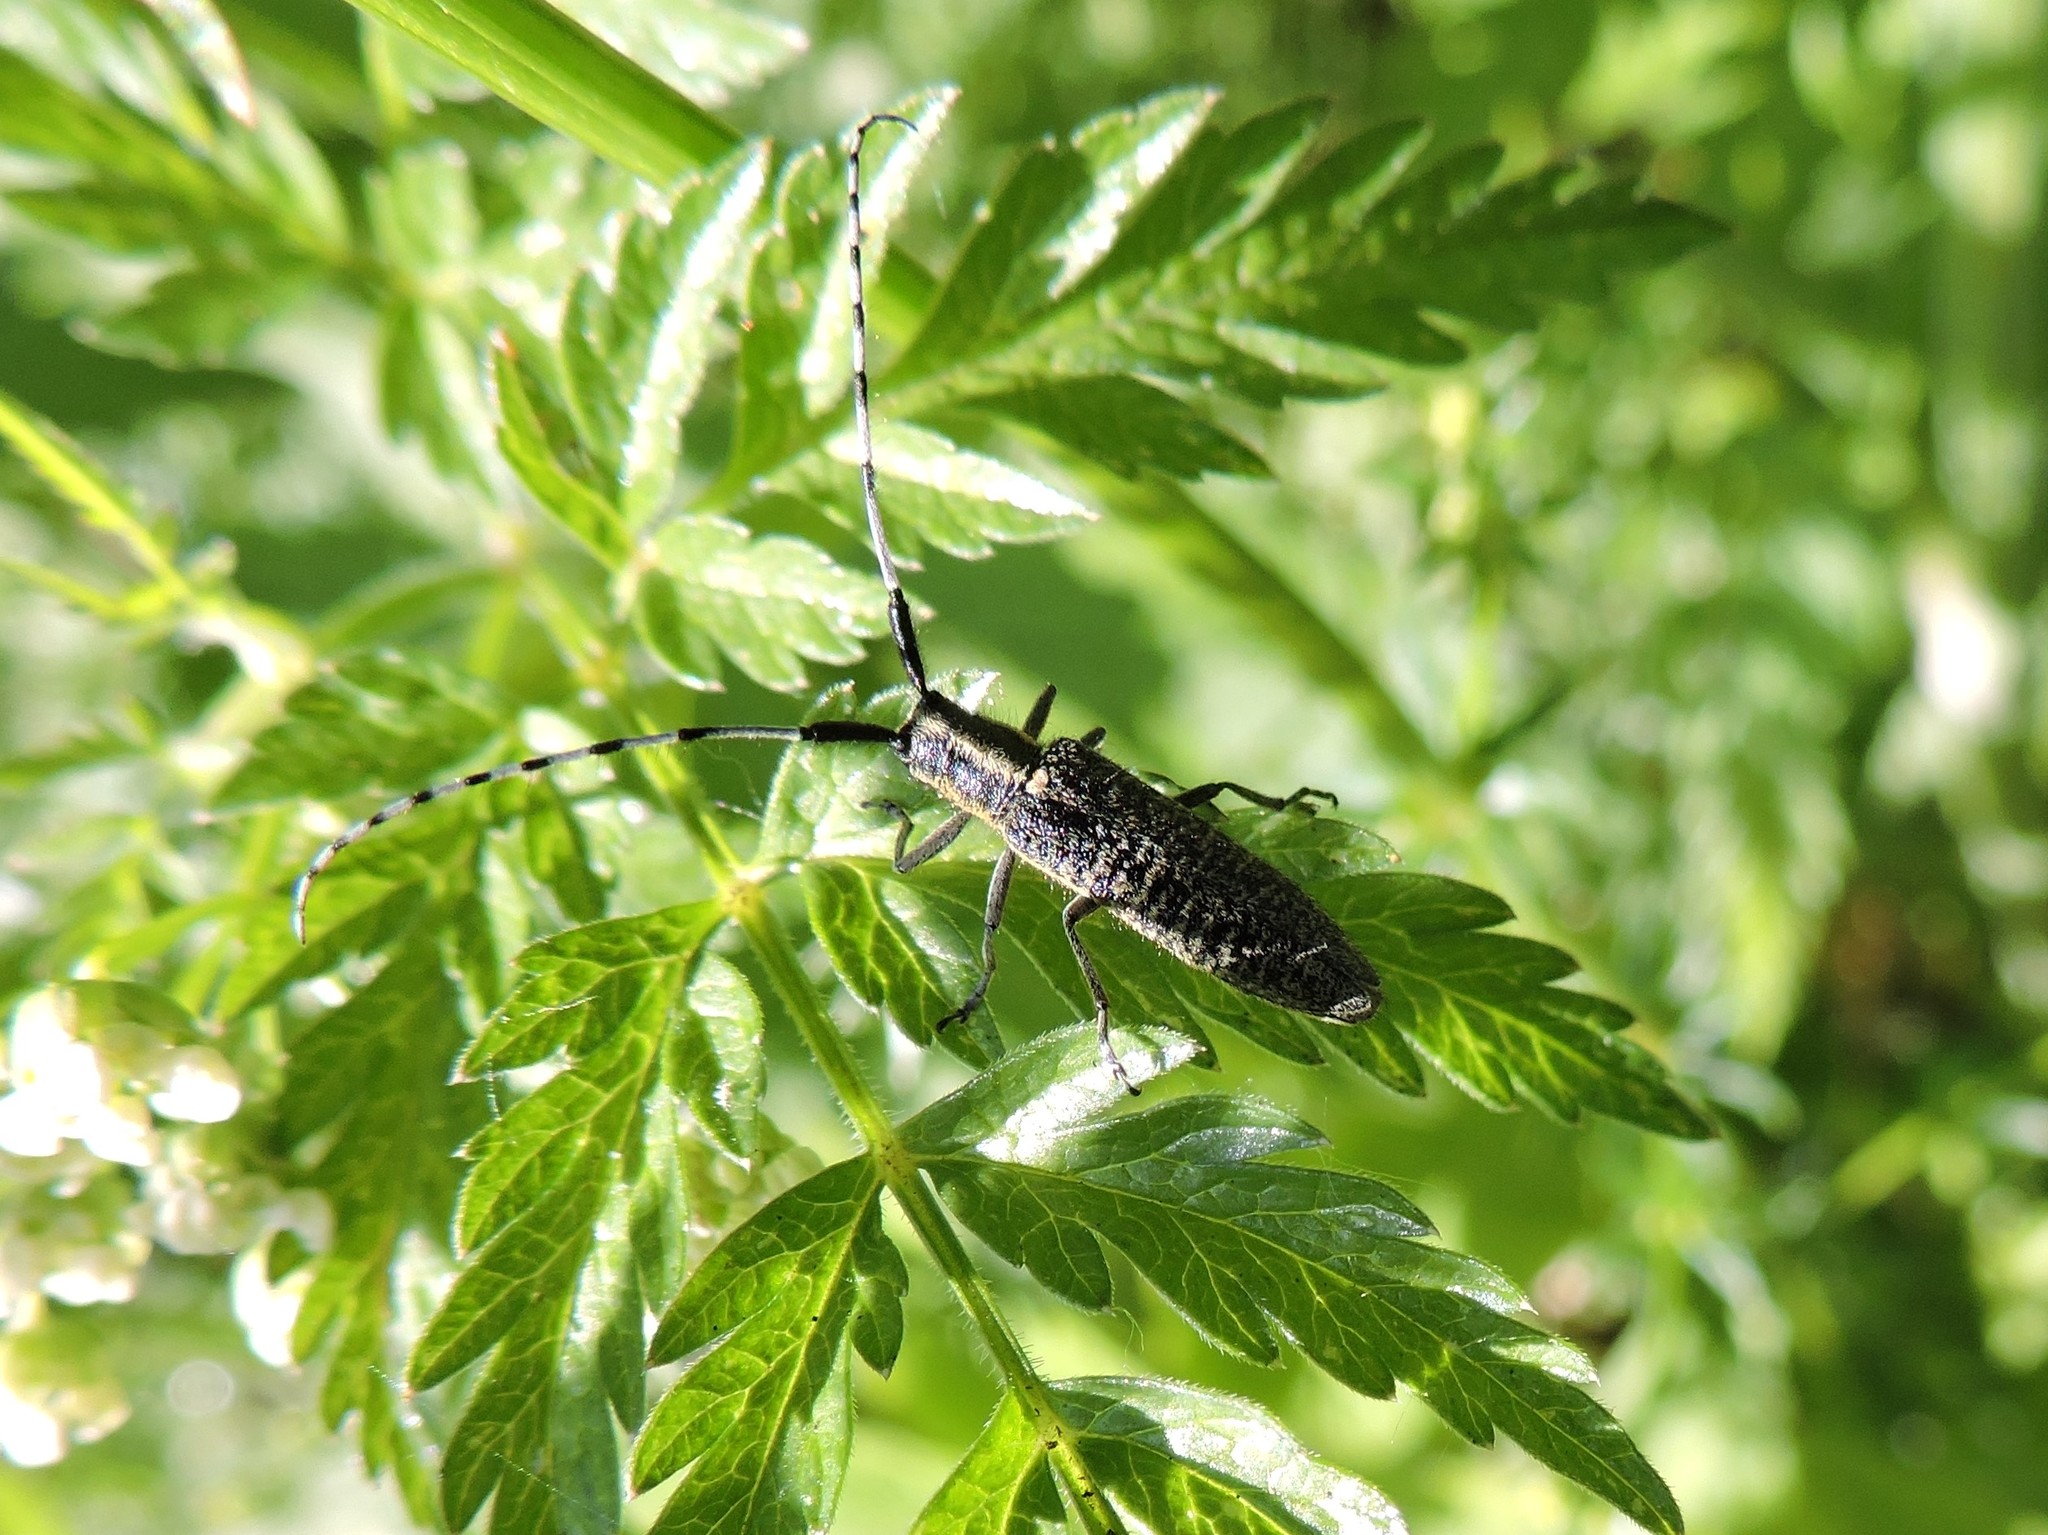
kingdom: Animalia
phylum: Arthropoda
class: Insecta
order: Coleoptera
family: Cerambycidae
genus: Agapanthia
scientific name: Agapanthia villosoviridescens
